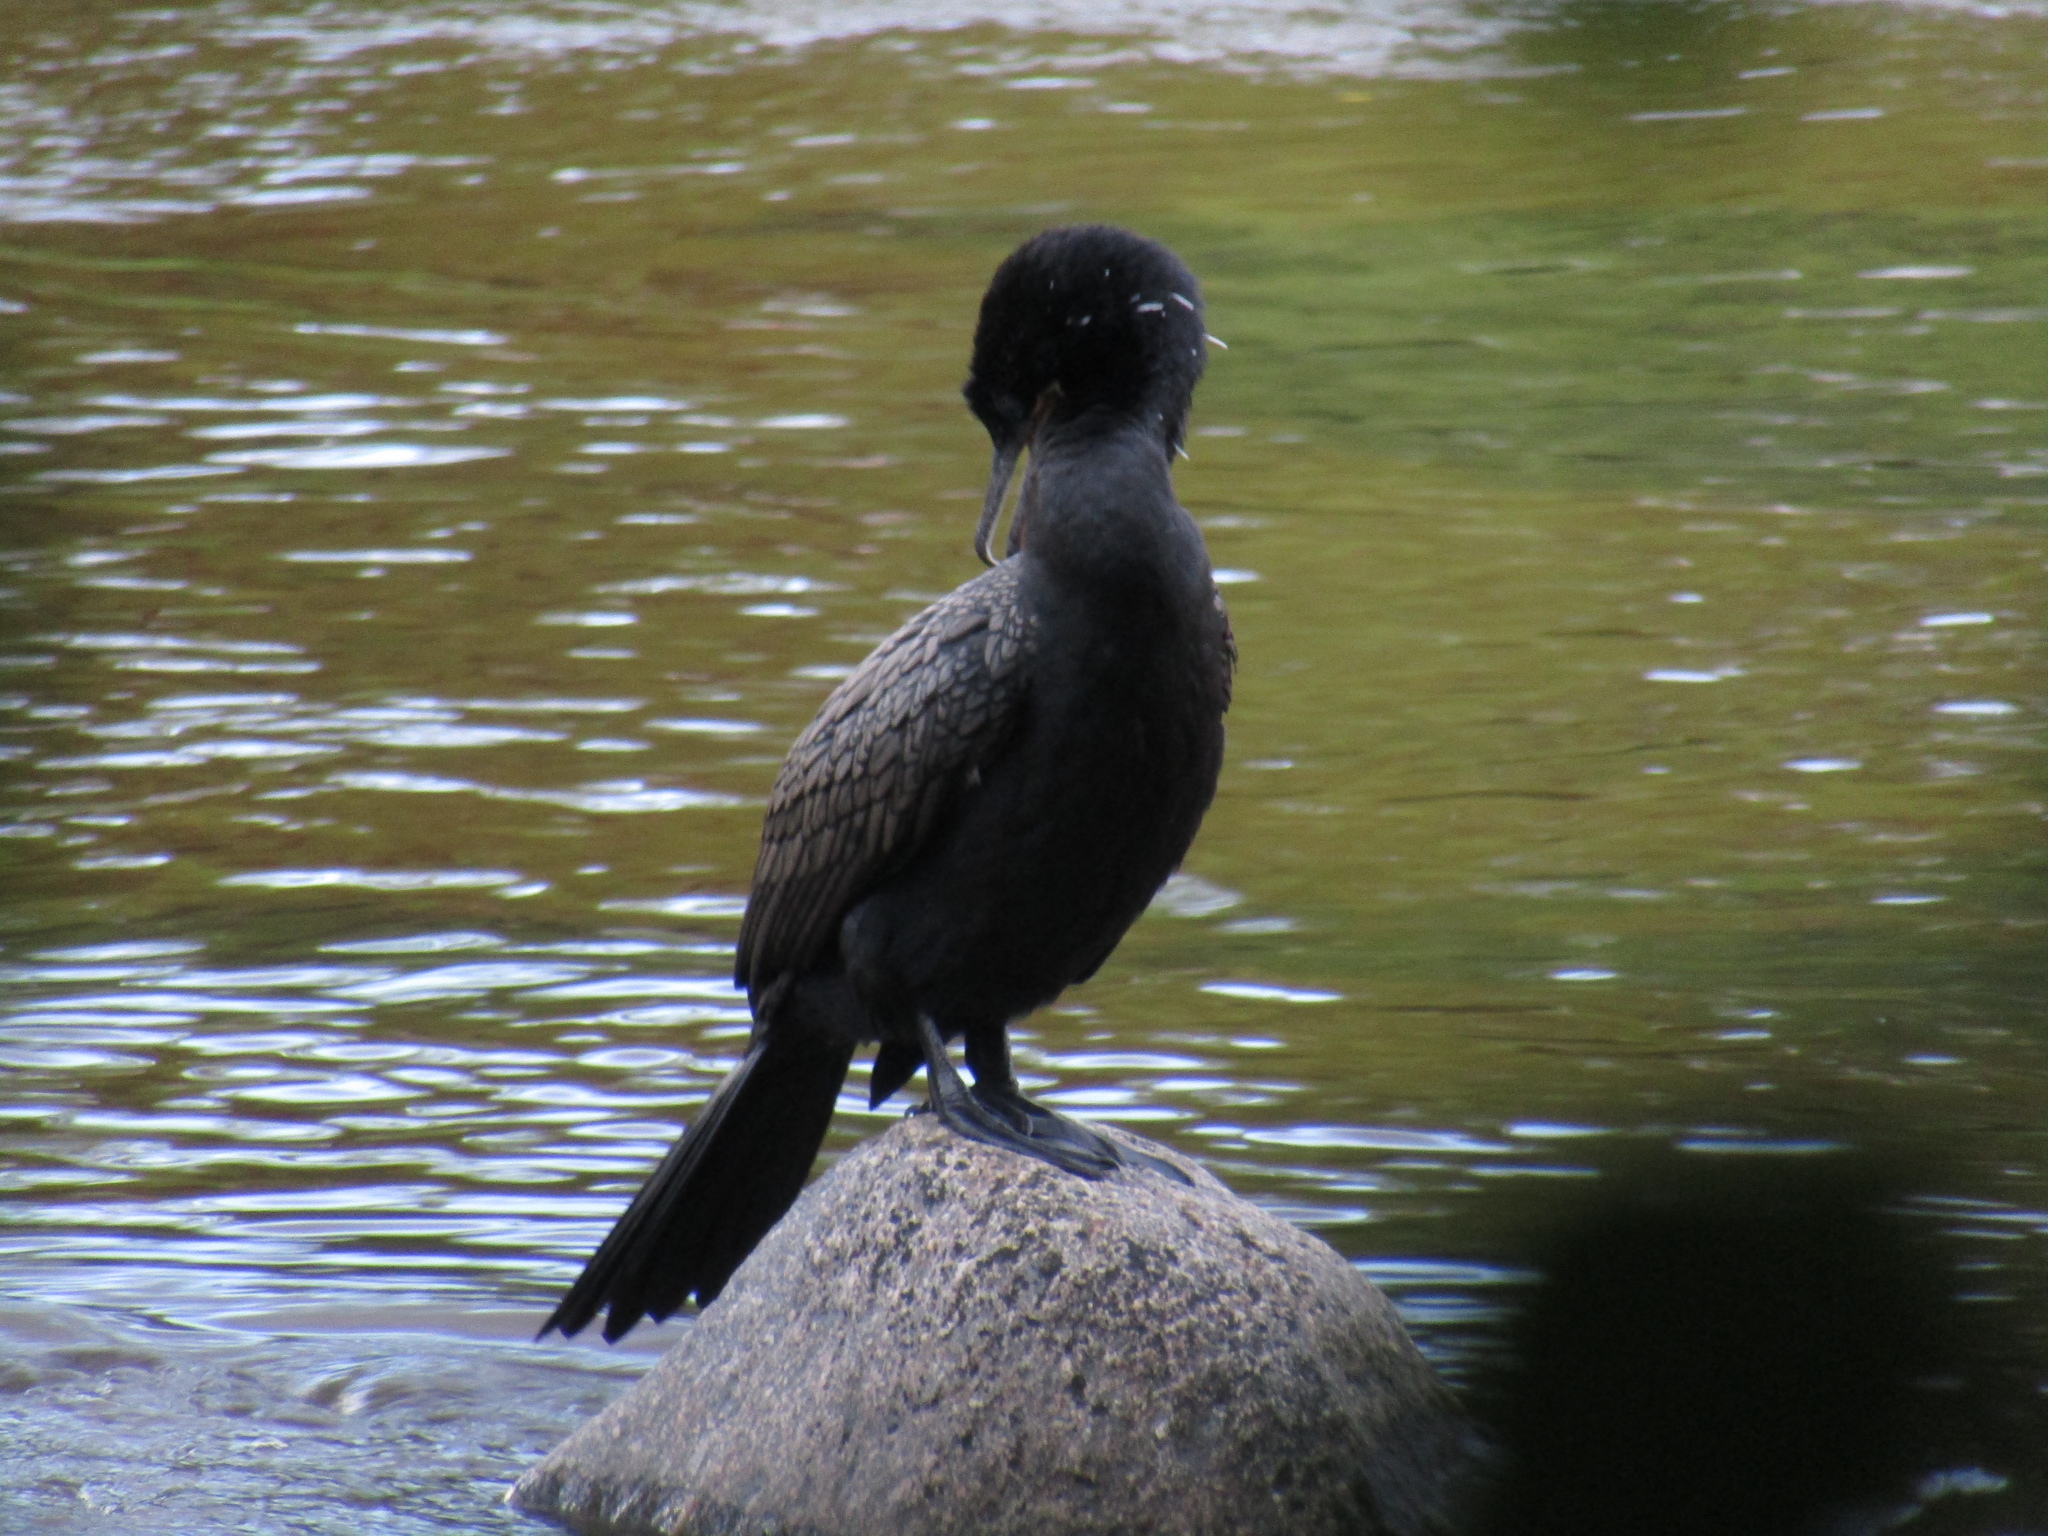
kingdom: Animalia
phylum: Chordata
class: Aves
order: Suliformes
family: Phalacrocoracidae
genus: Phalacrocorax
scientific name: Phalacrocorax brasilianus
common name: Neotropic cormorant
